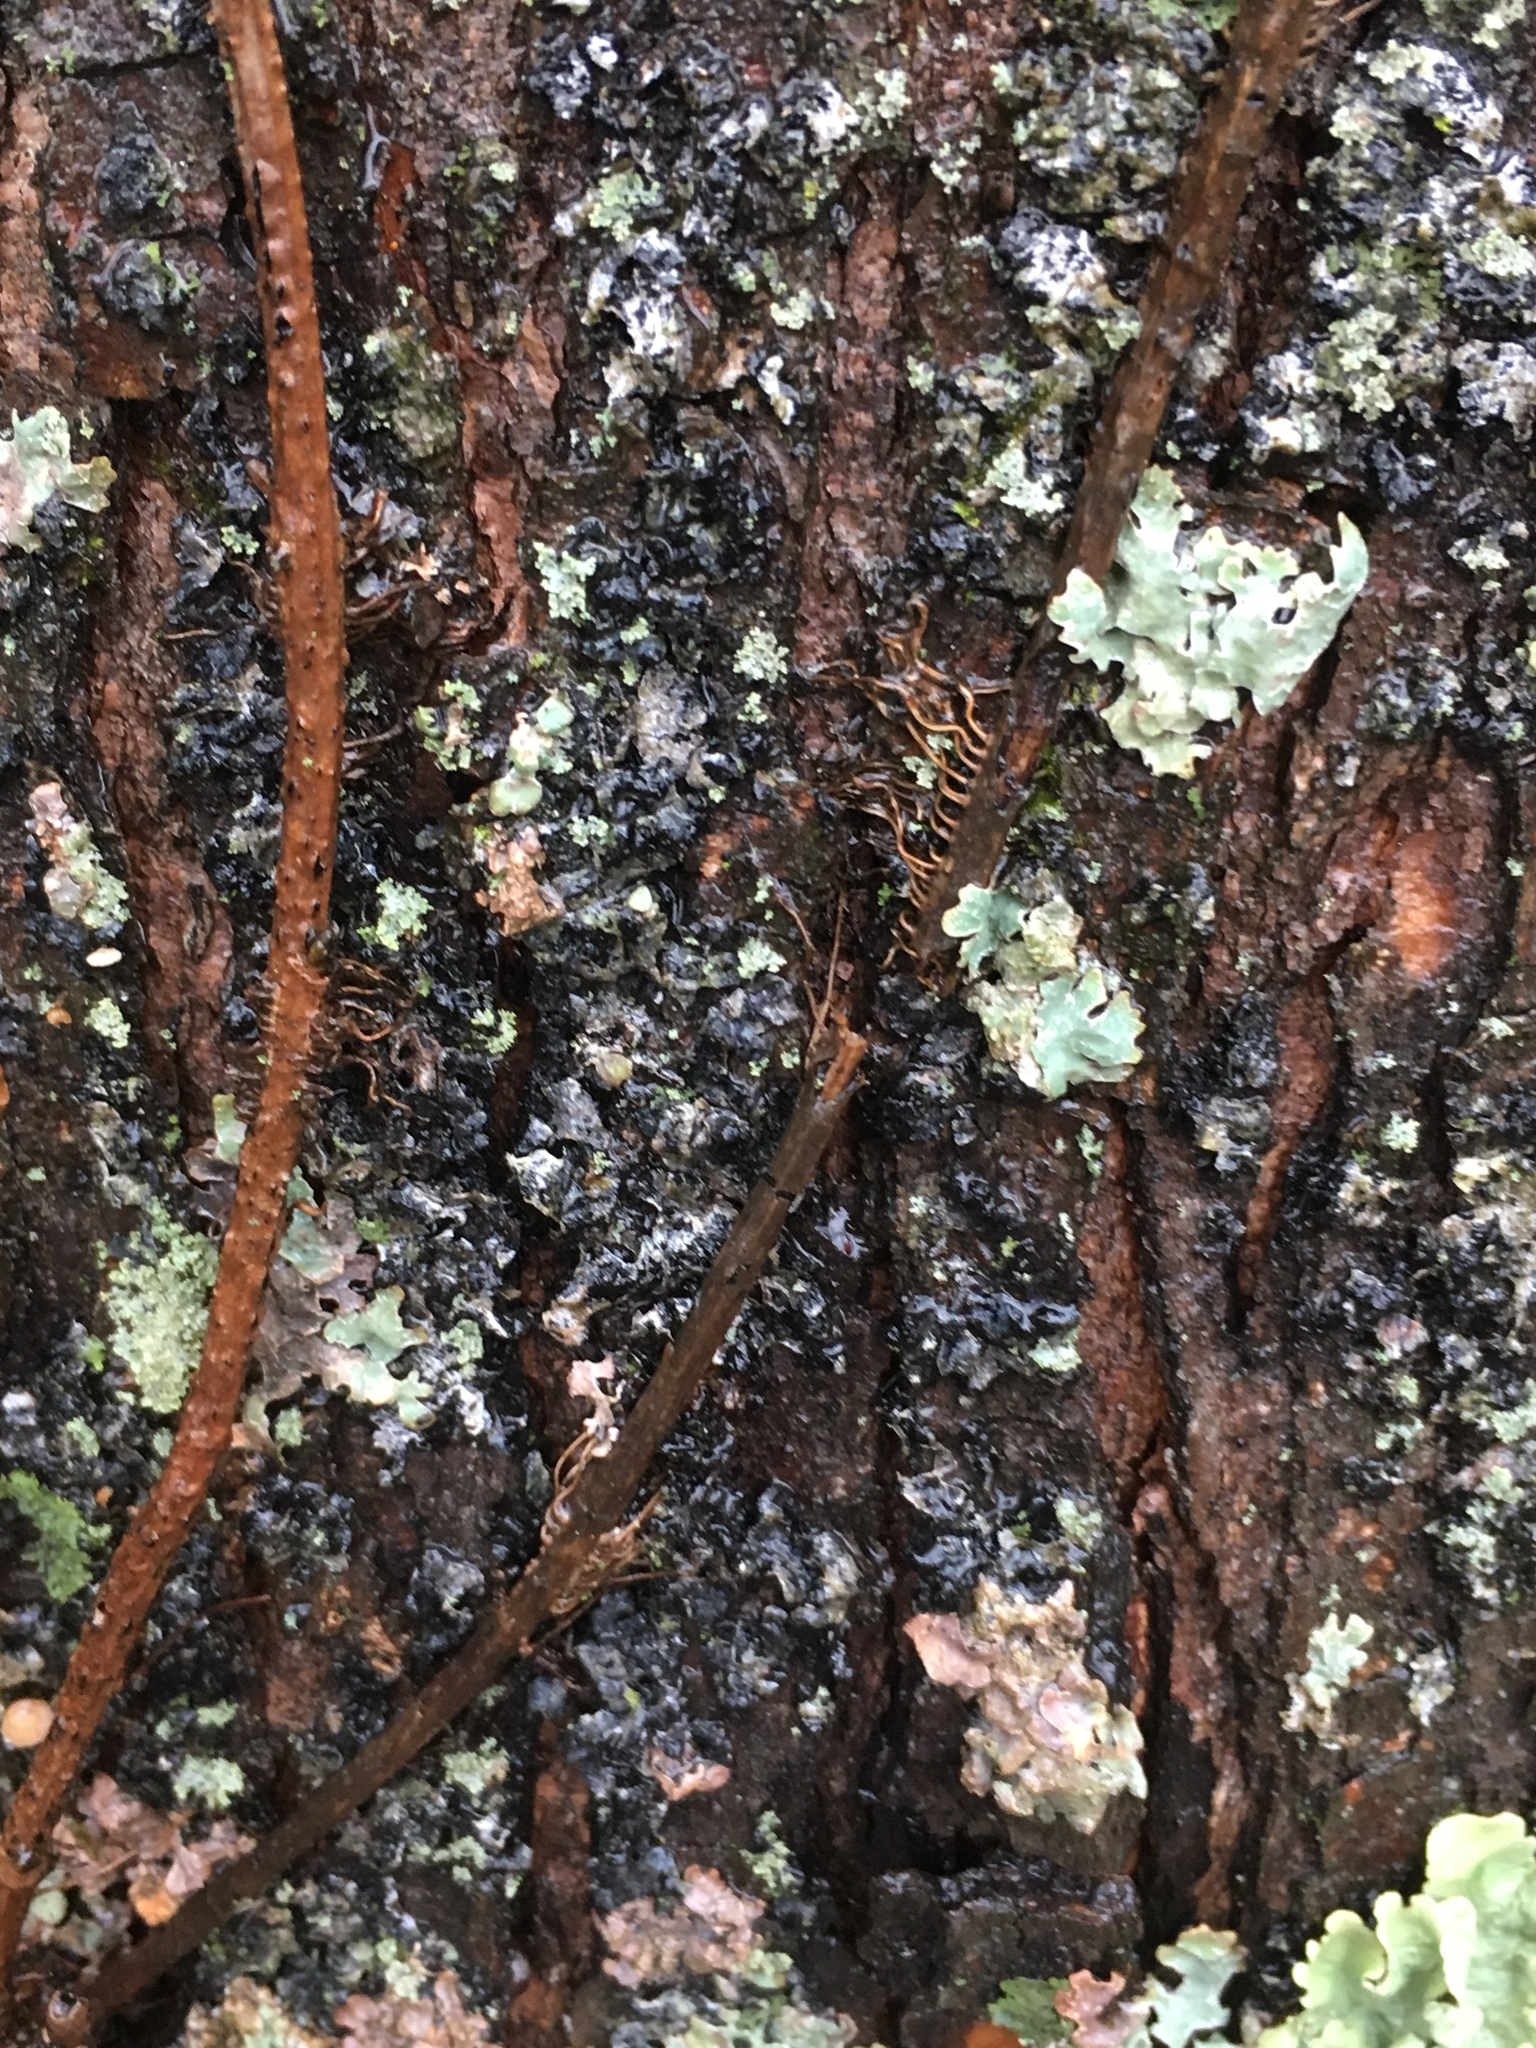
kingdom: Plantae
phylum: Tracheophyta
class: Magnoliopsida
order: Sapindales
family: Anacardiaceae
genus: Toxicodendron
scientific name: Toxicodendron radicans
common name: Poison ivy
